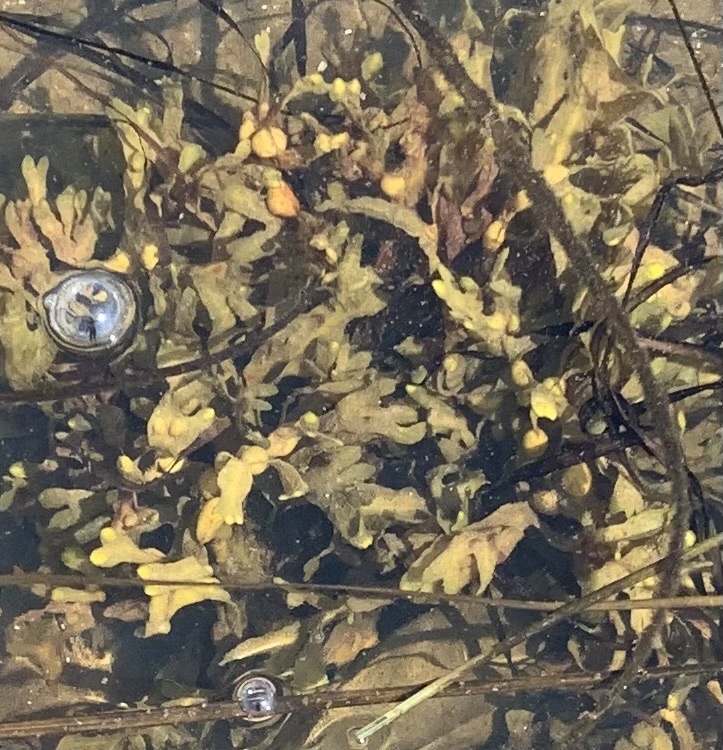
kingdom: Chromista
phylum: Ochrophyta
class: Phaeophyceae
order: Fucales
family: Fucaceae
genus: Fucus
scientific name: Fucus vesiculosus
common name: Bladder wrack
